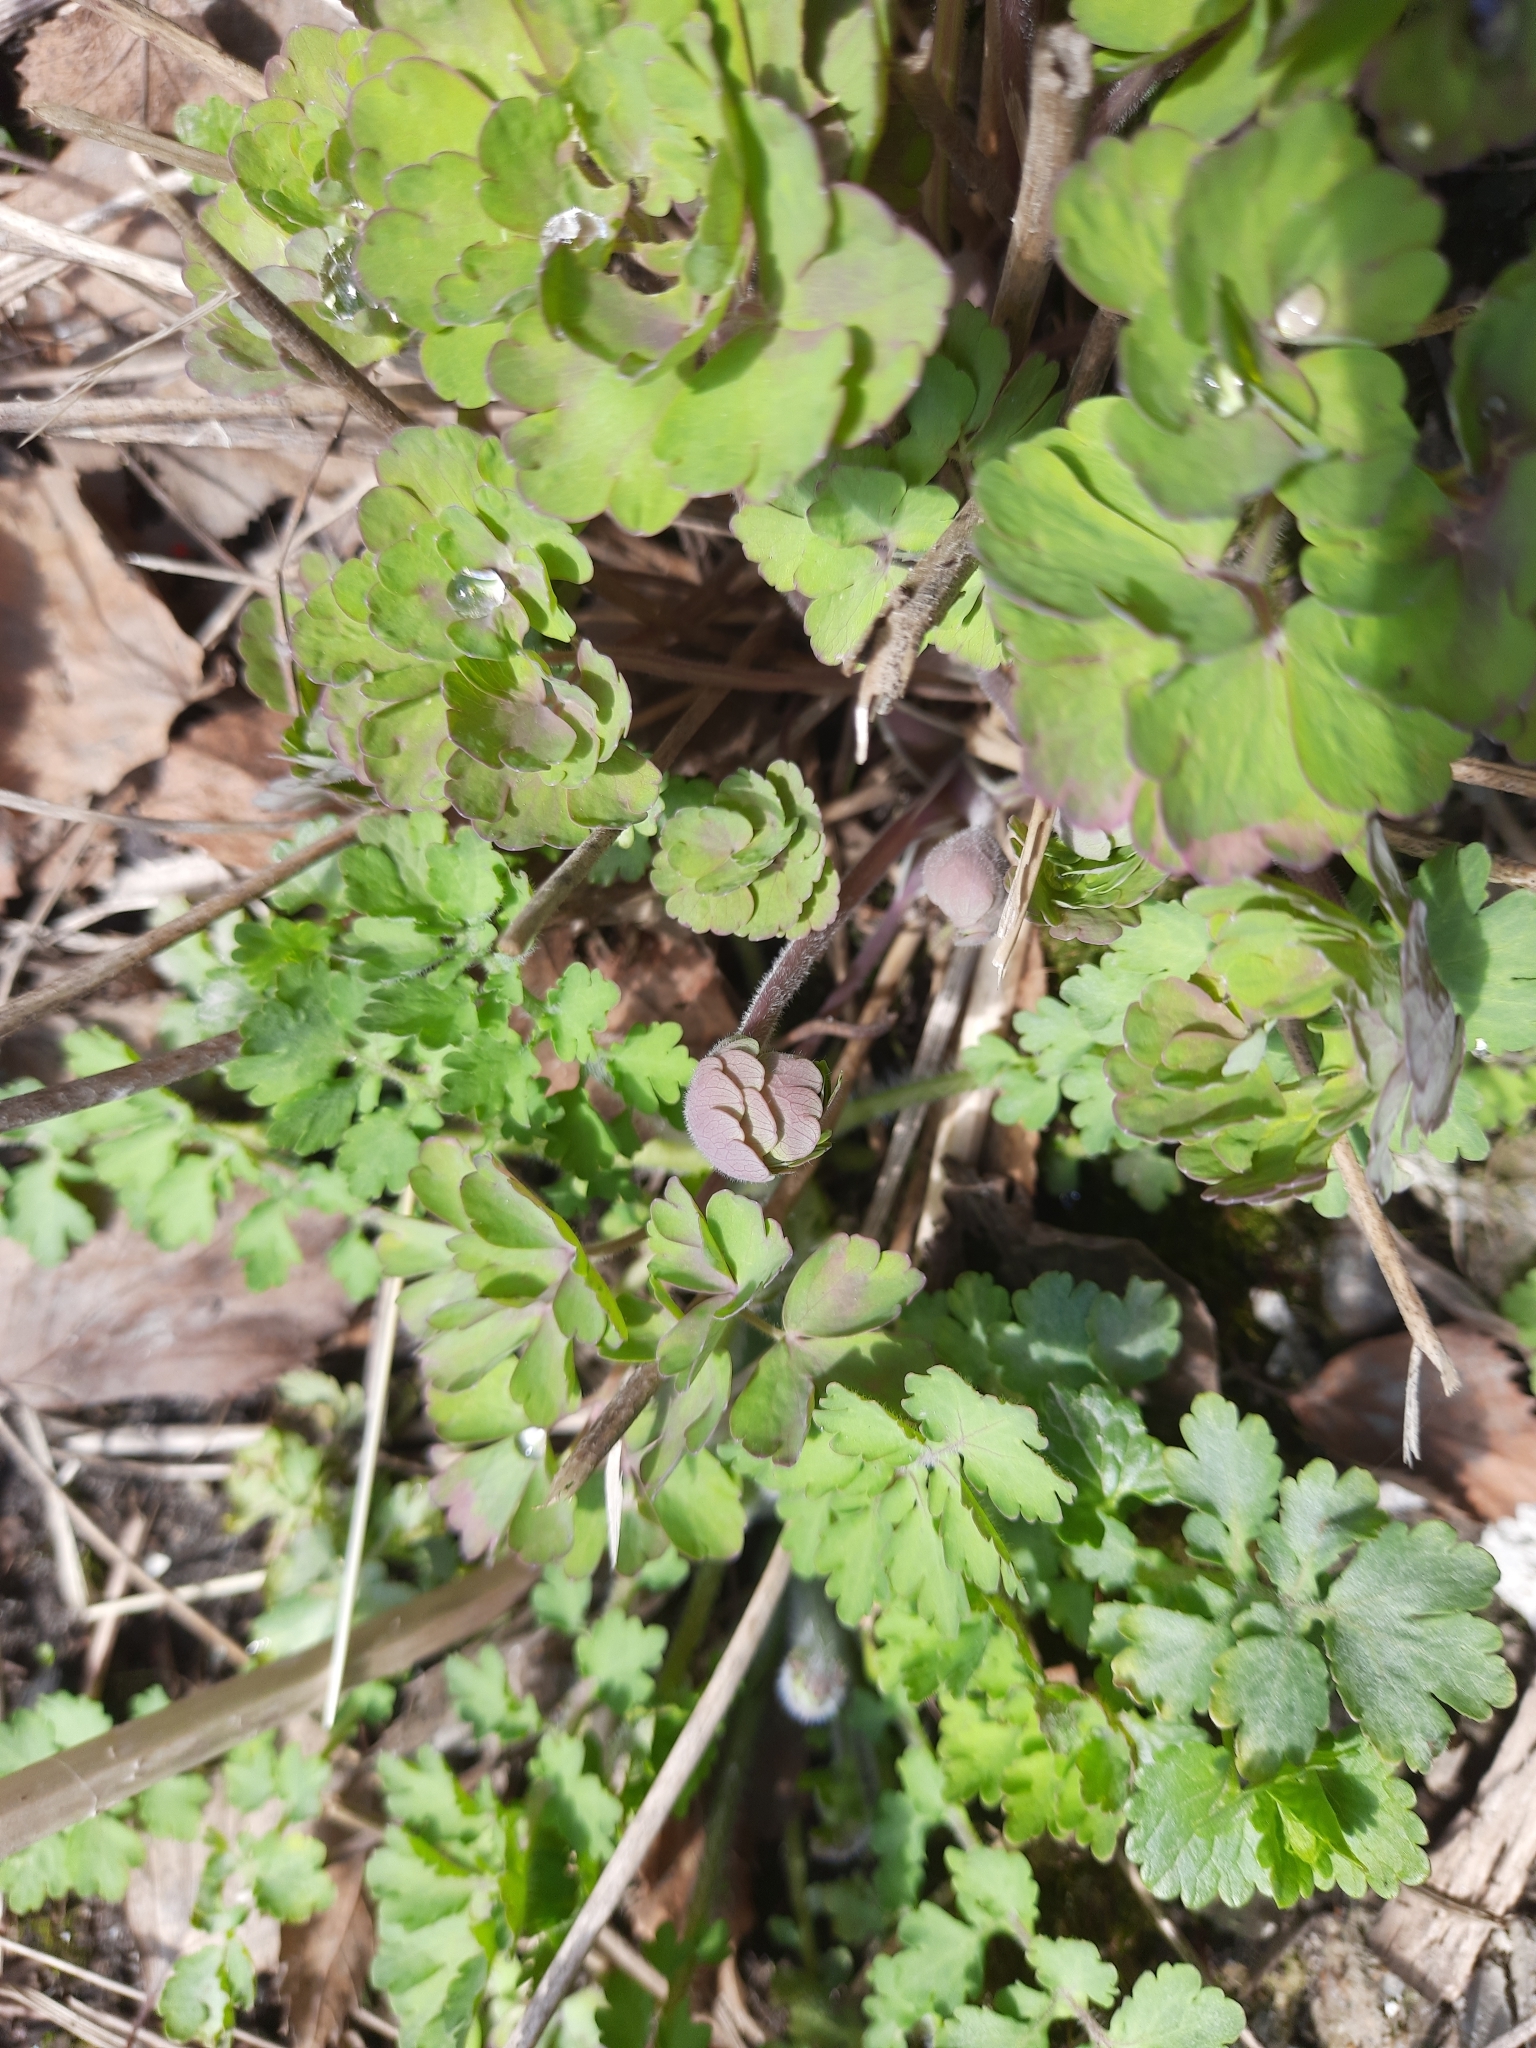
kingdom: Plantae
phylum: Tracheophyta
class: Magnoliopsida
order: Ranunculales
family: Ranunculaceae
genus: Aquilegia
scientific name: Aquilegia vulgaris
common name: Columbine
